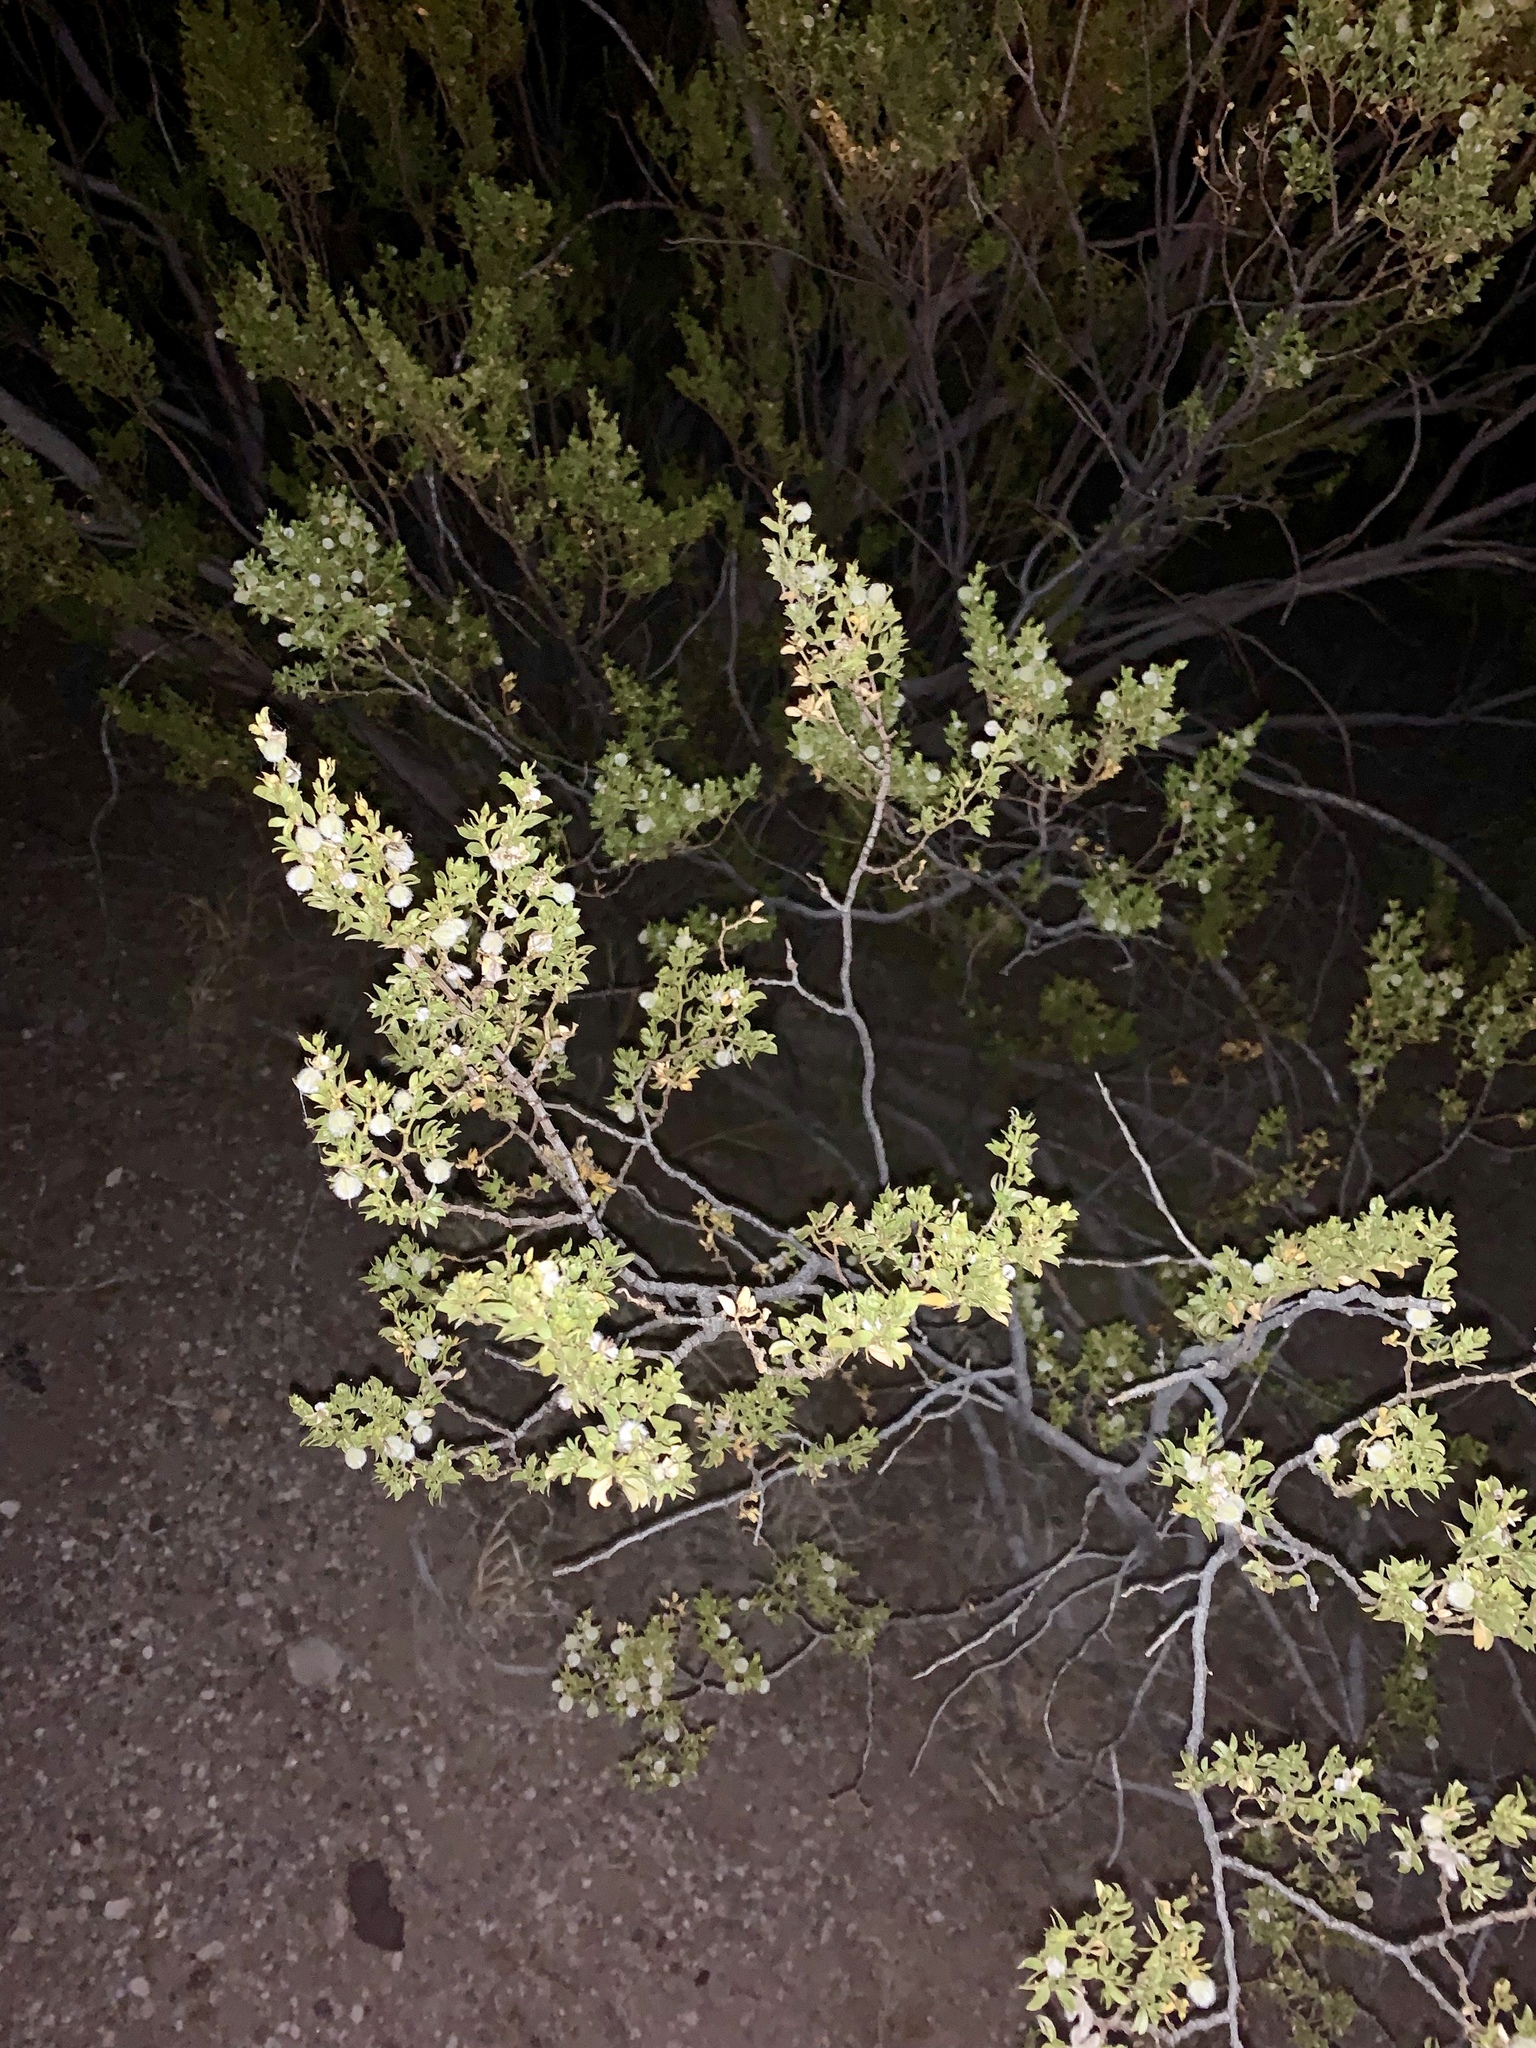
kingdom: Plantae
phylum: Tracheophyta
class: Magnoliopsida
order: Zygophyllales
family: Zygophyllaceae
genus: Larrea
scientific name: Larrea tridentata
